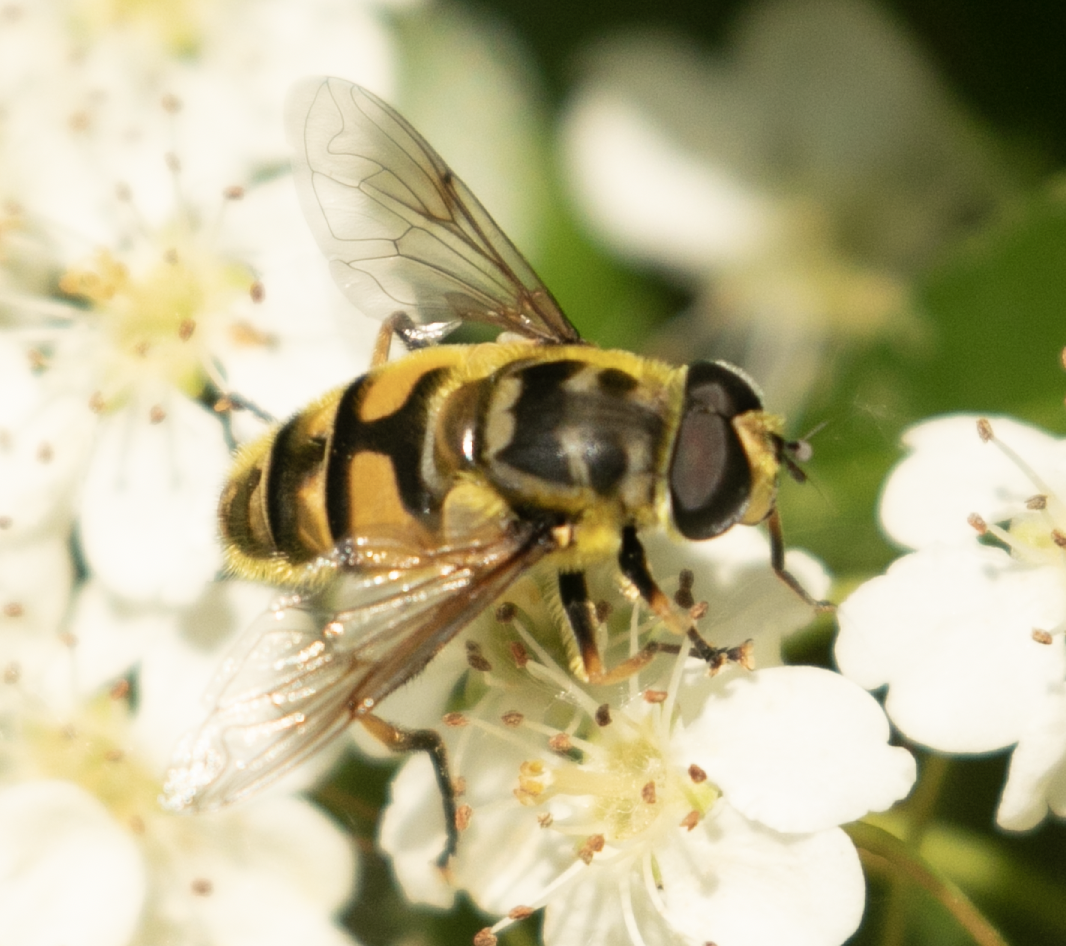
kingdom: Animalia
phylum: Arthropoda
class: Insecta
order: Diptera
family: Syrphidae
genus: Myathropa
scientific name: Myathropa florea
